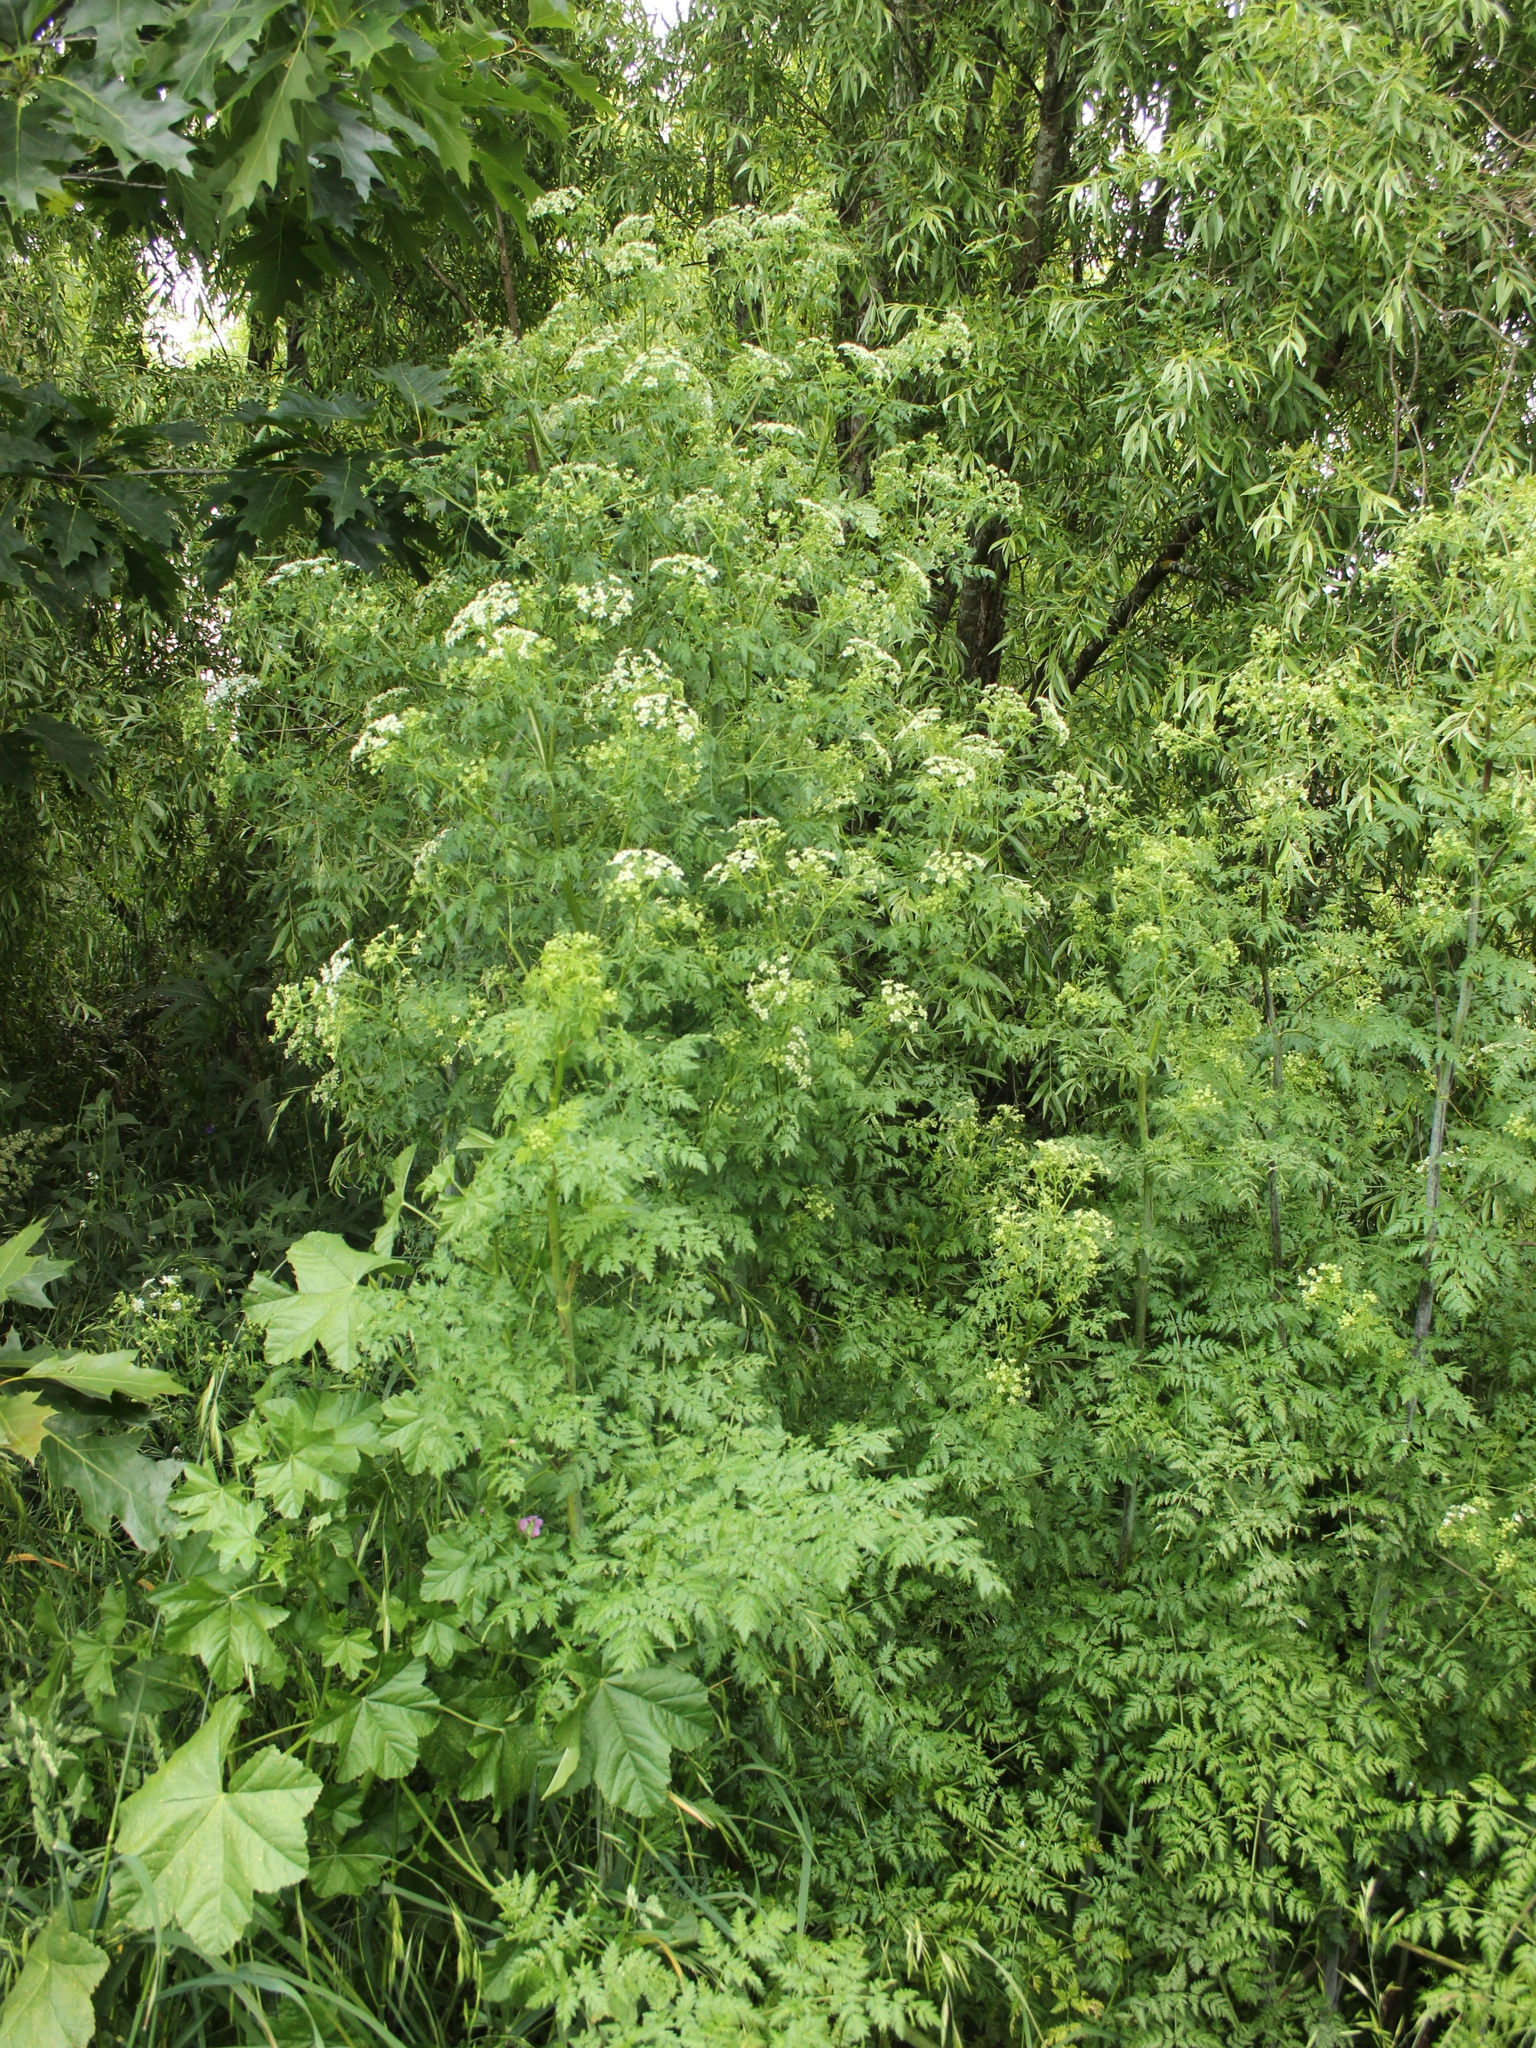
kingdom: Plantae
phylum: Tracheophyta
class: Magnoliopsida
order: Apiales
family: Apiaceae
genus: Conium
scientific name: Conium maculatum
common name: Hemlock
